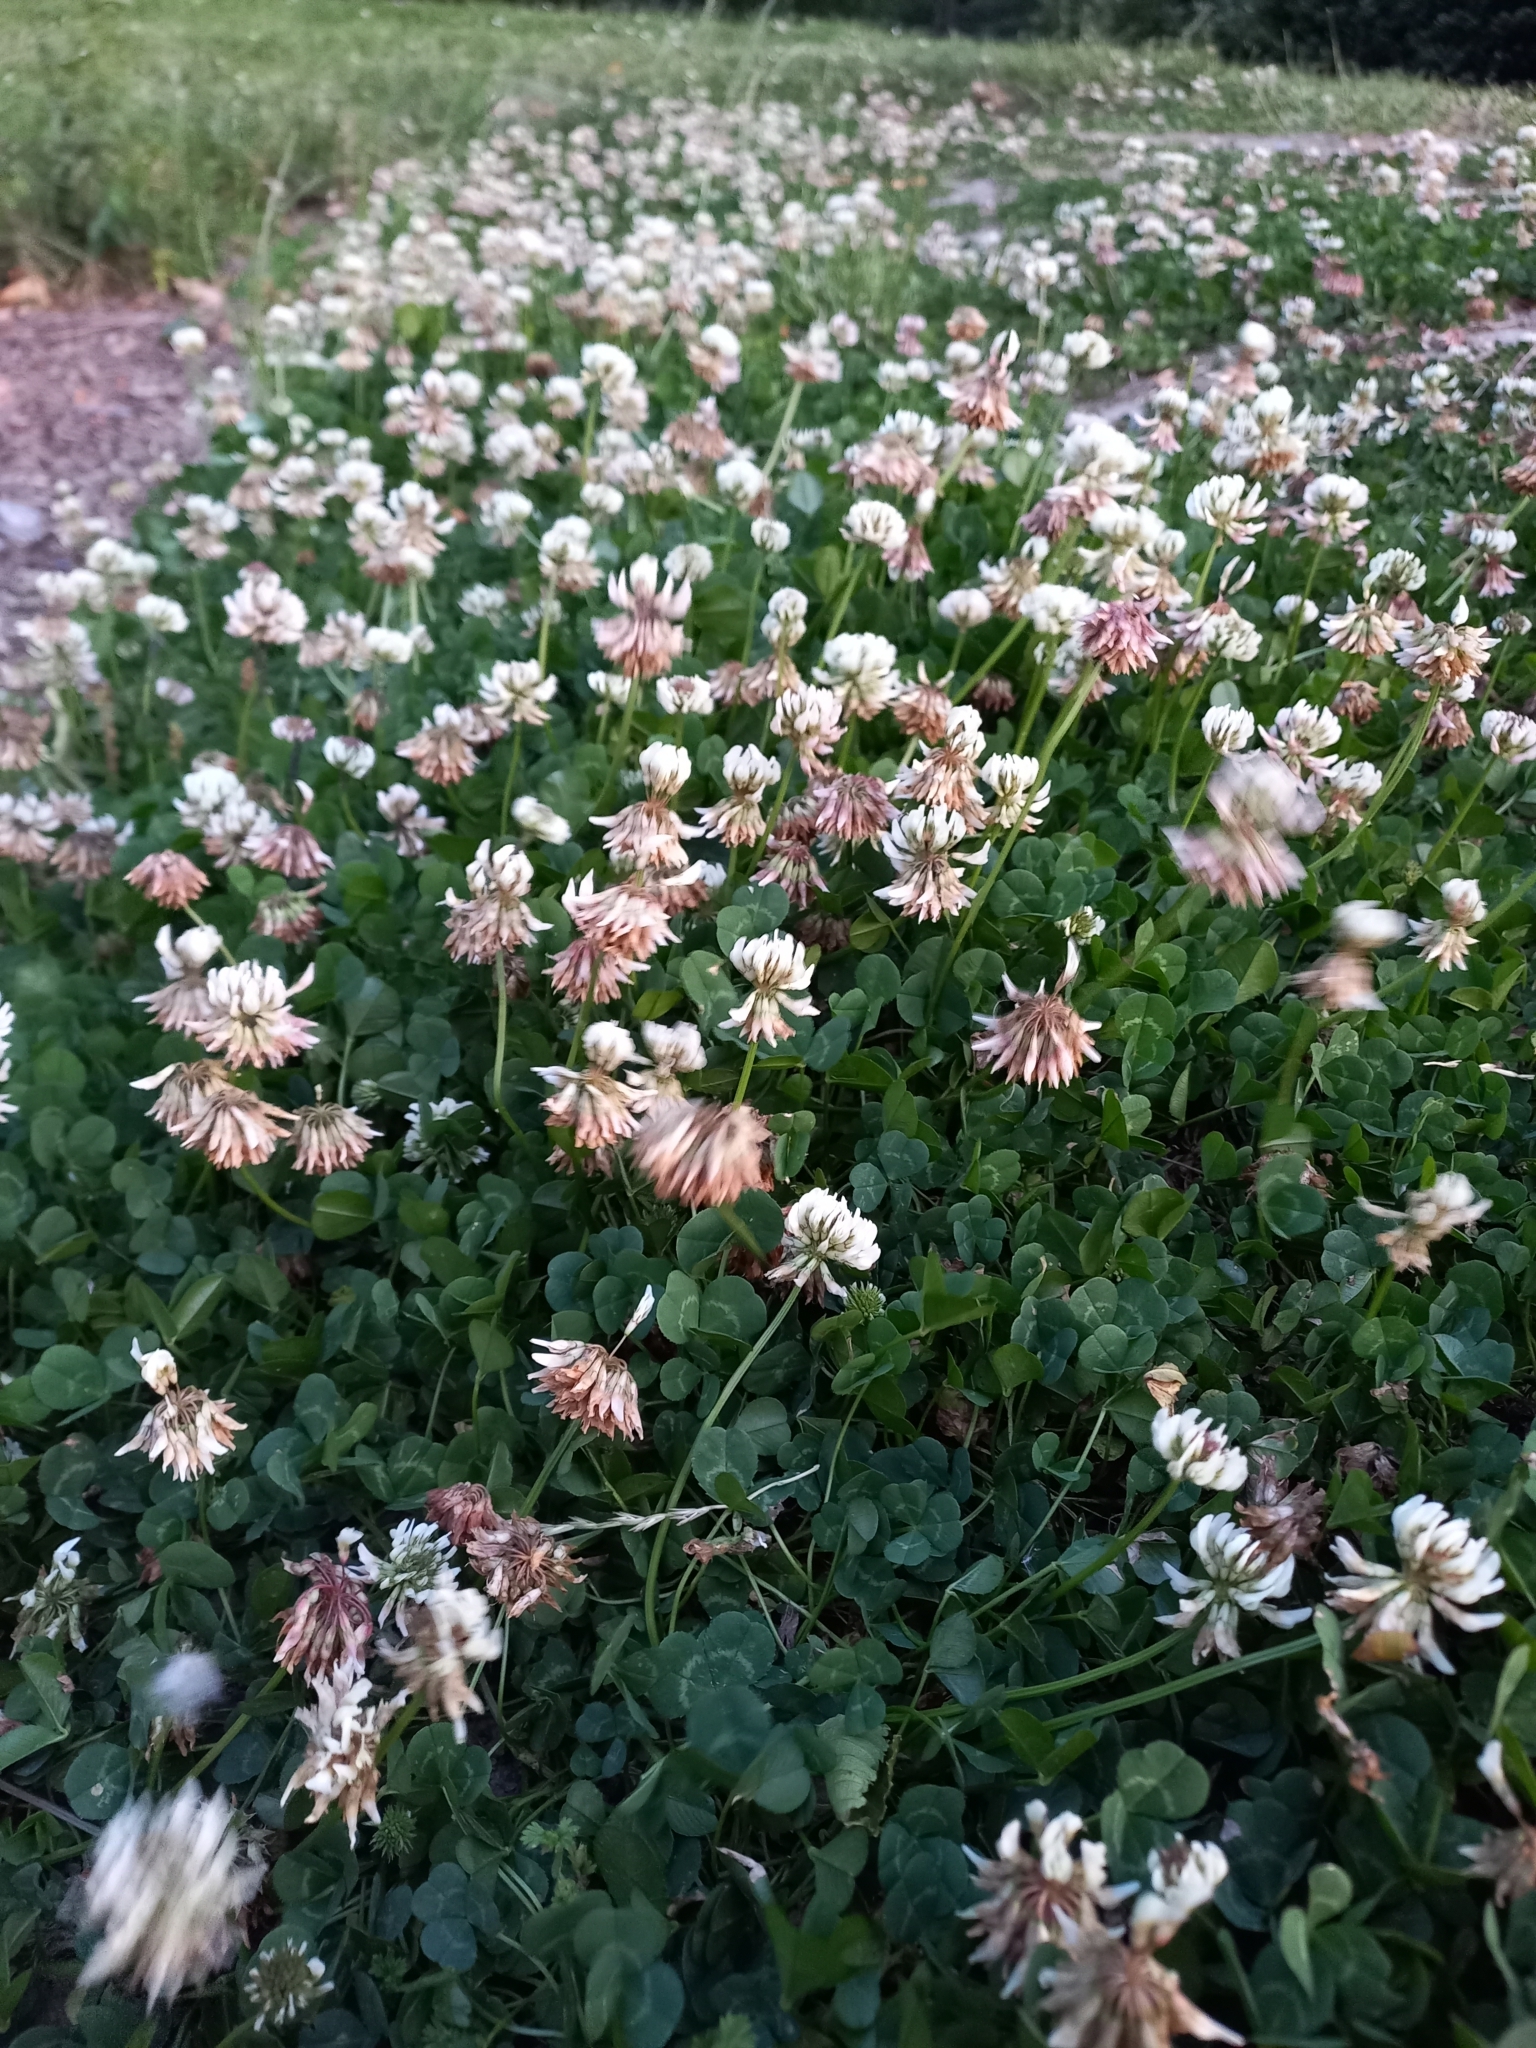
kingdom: Plantae
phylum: Tracheophyta
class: Magnoliopsida
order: Fabales
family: Fabaceae
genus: Trifolium
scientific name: Trifolium repens
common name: White clover
